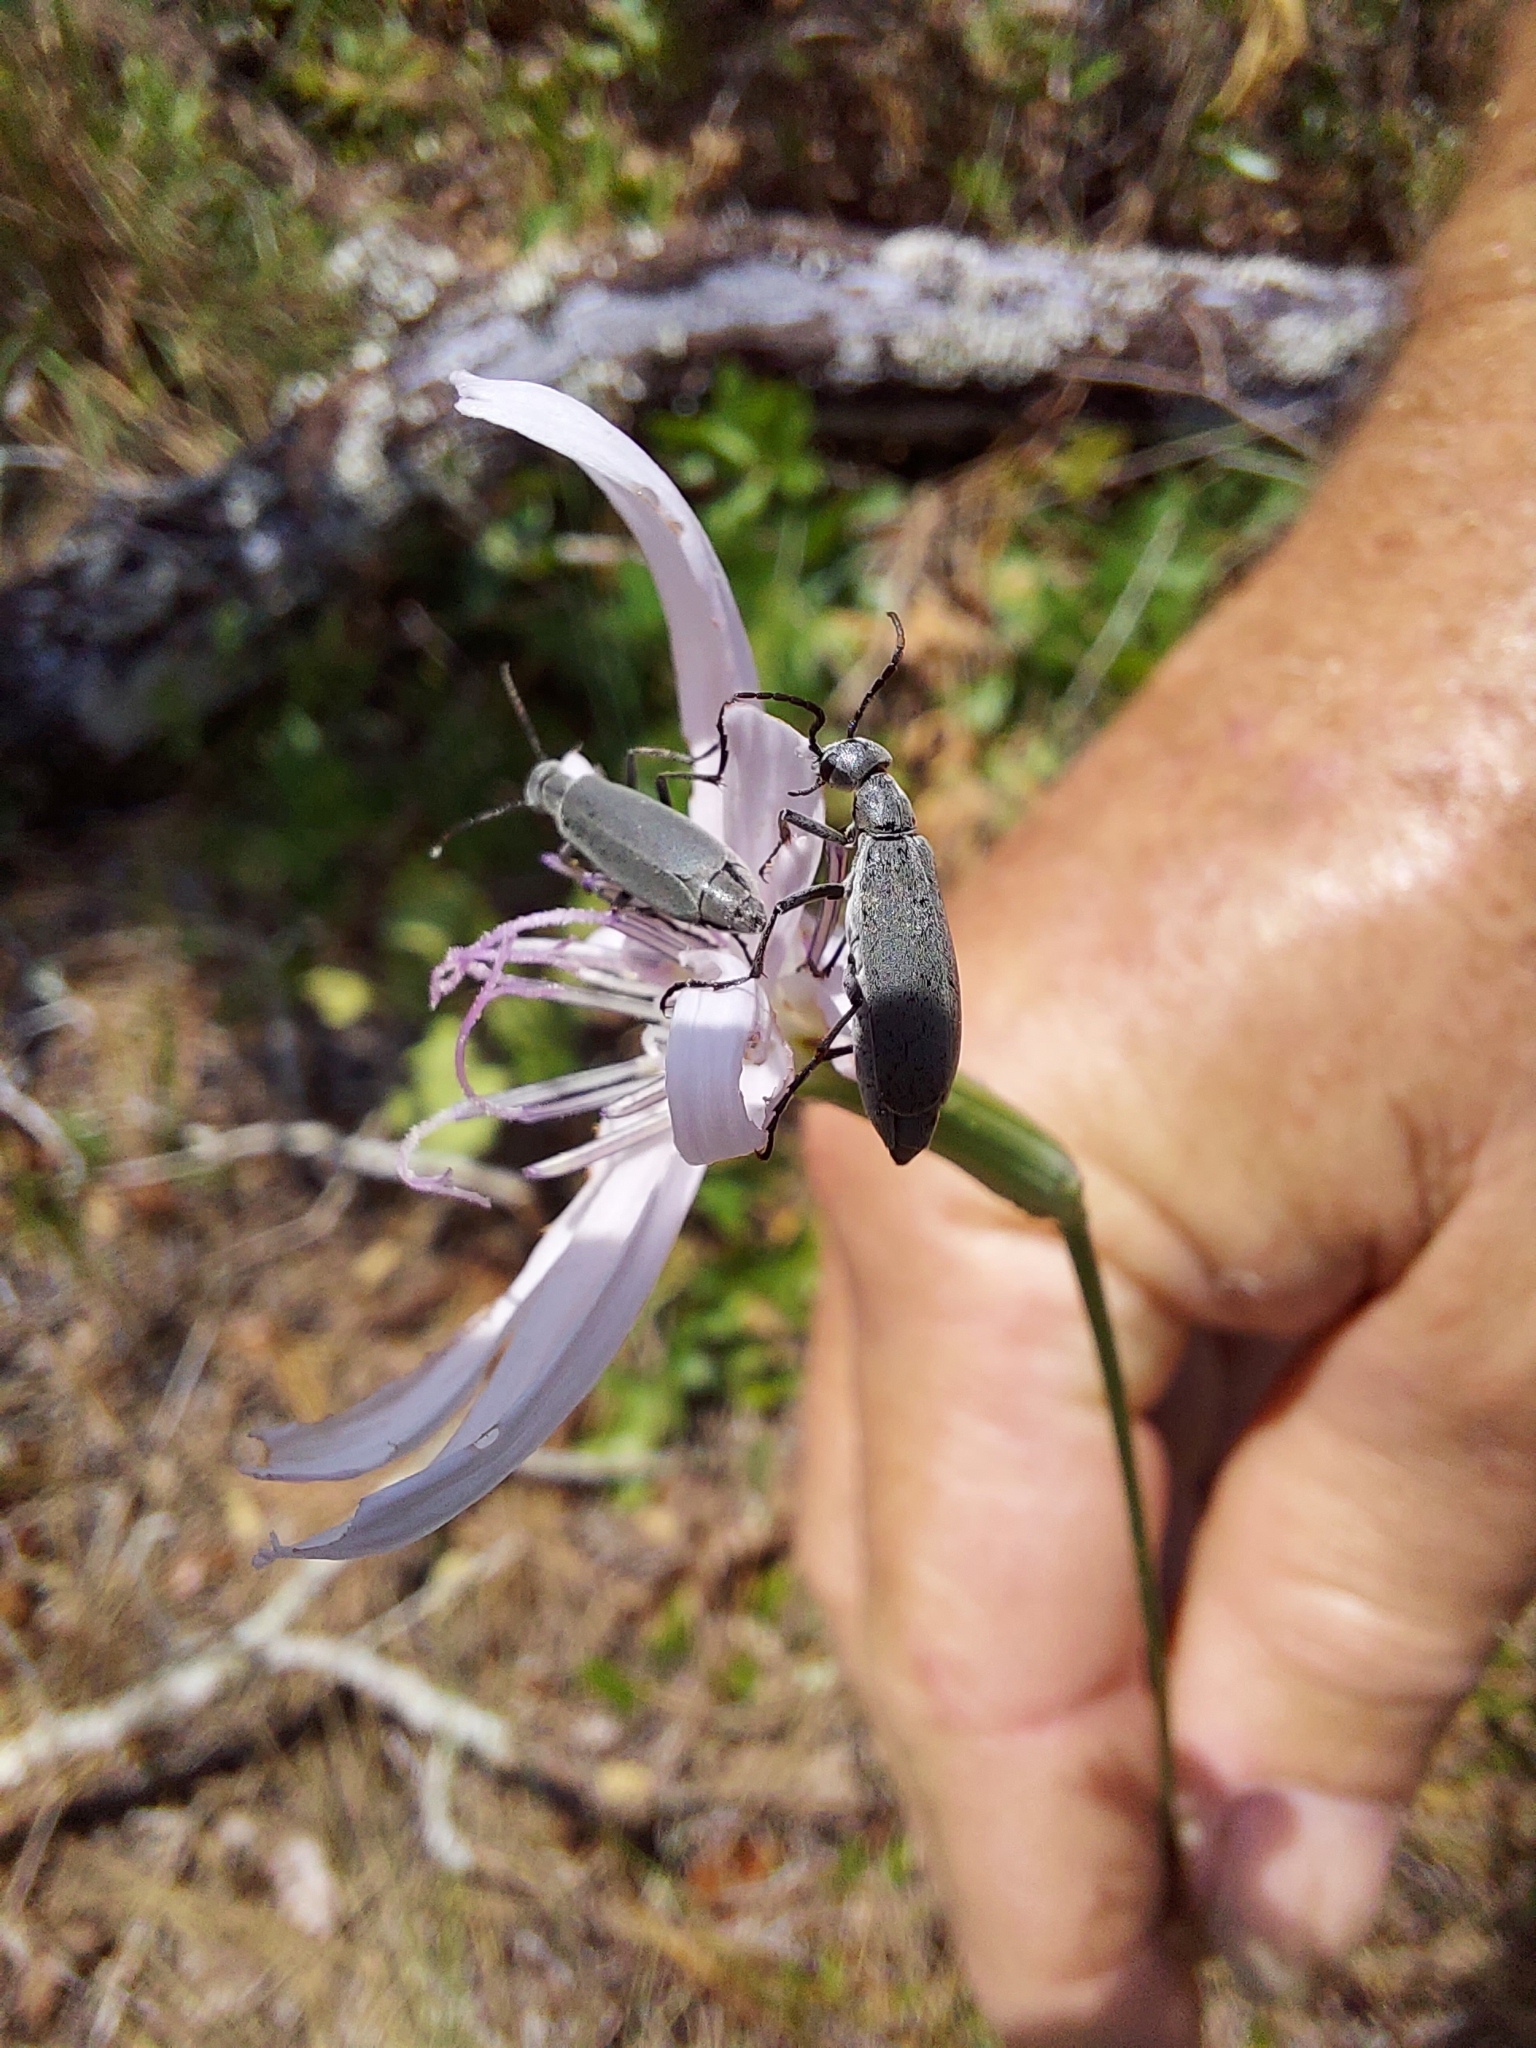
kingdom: Animalia
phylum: Arthropoda
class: Insecta
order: Coleoptera
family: Meloidae
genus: Epicauta
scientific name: Epicauta
